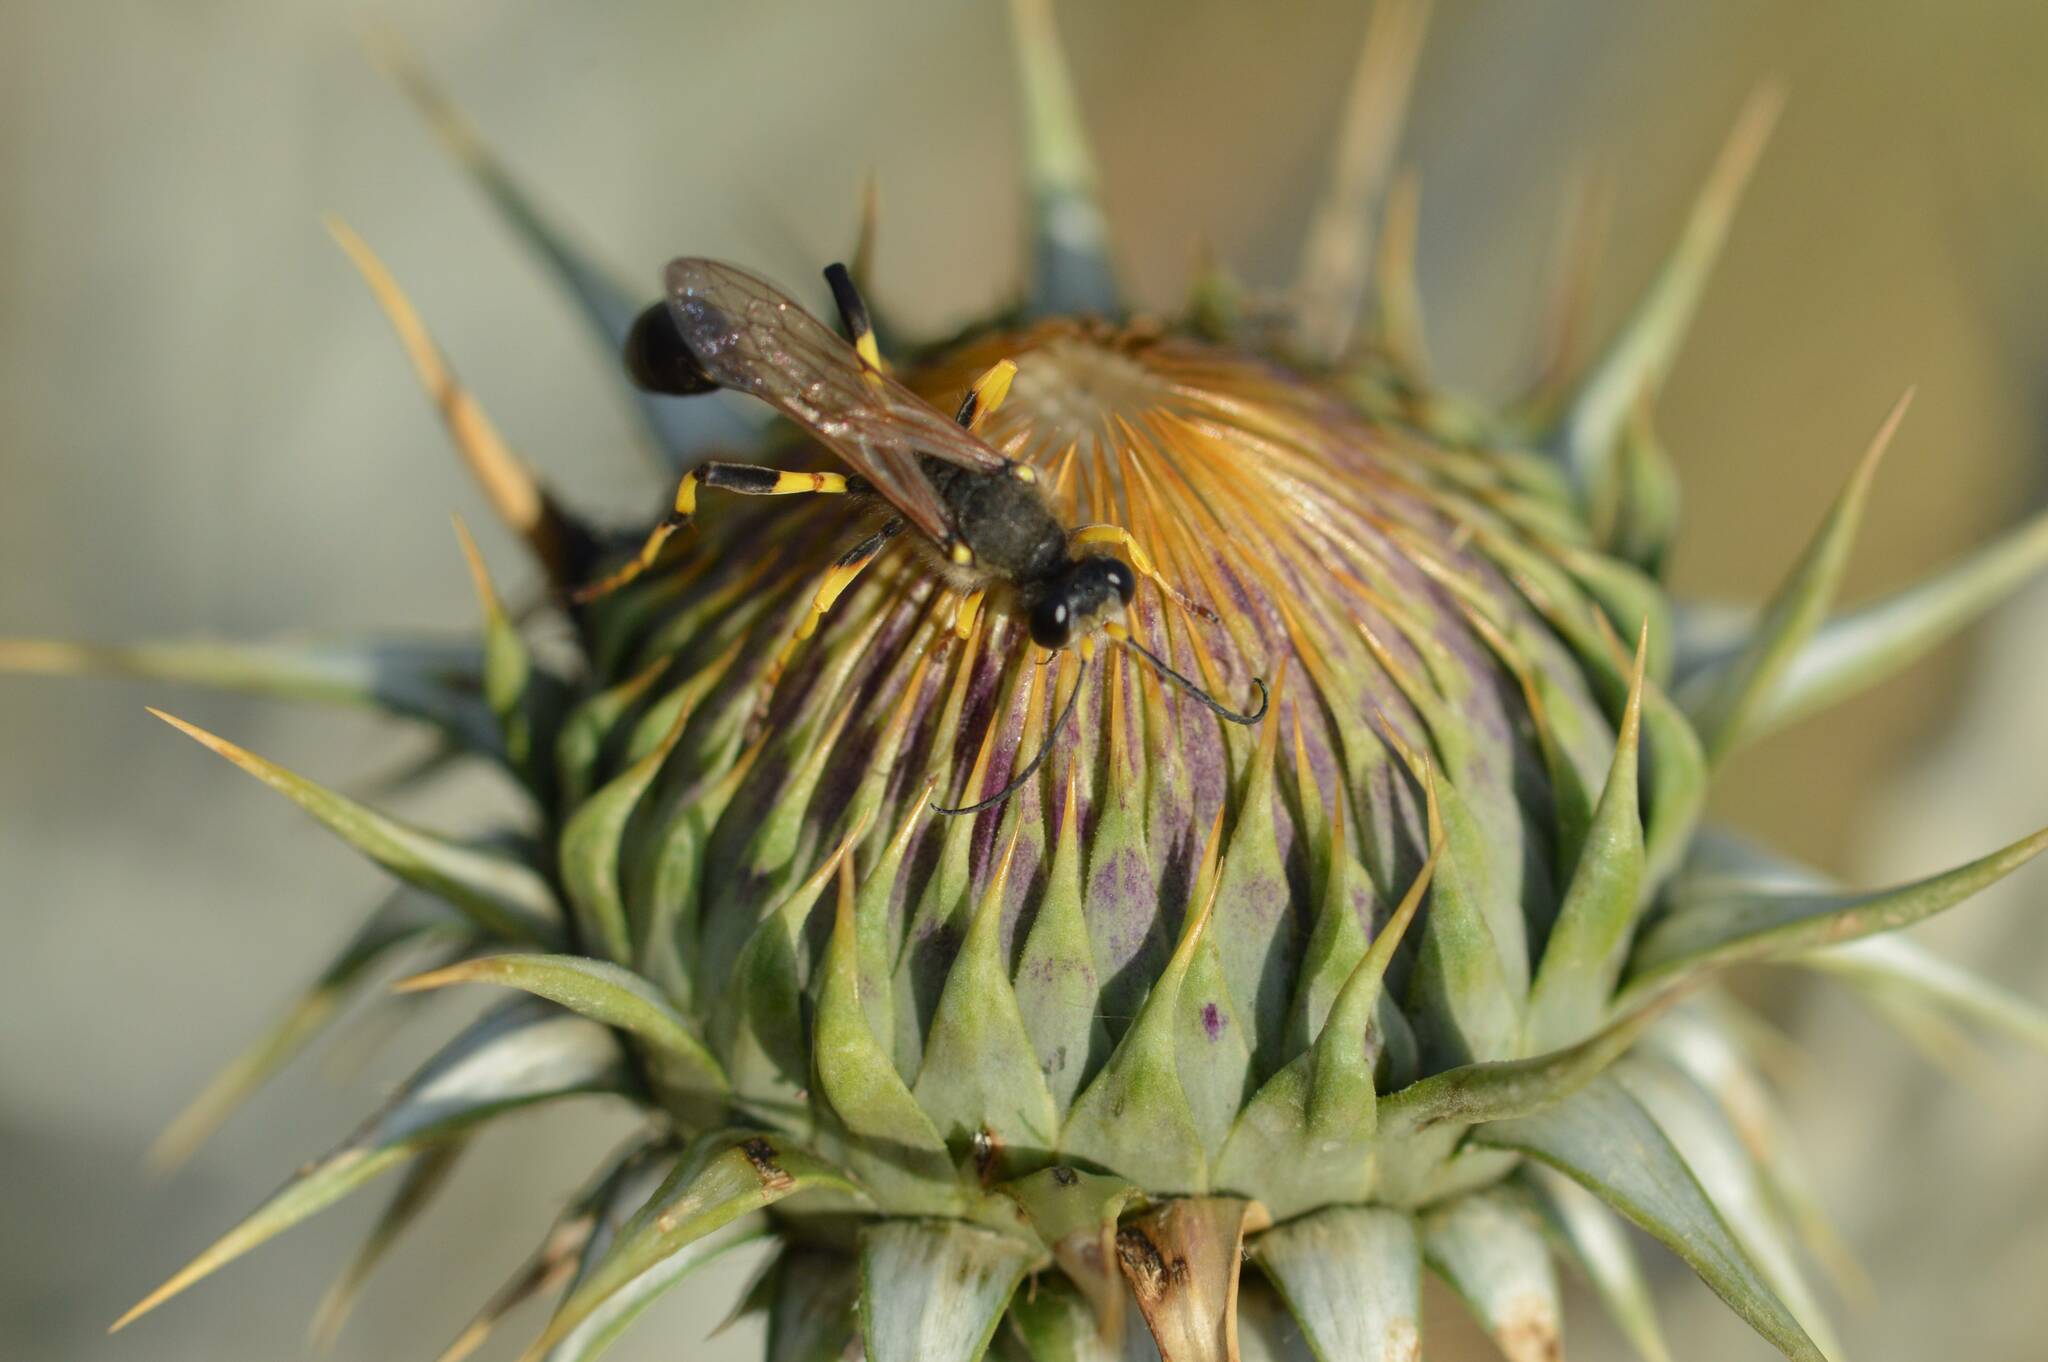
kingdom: Animalia
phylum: Arthropoda
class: Insecta
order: Hymenoptera
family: Sphecidae
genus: Sceliphron
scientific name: Sceliphron destillatorium
